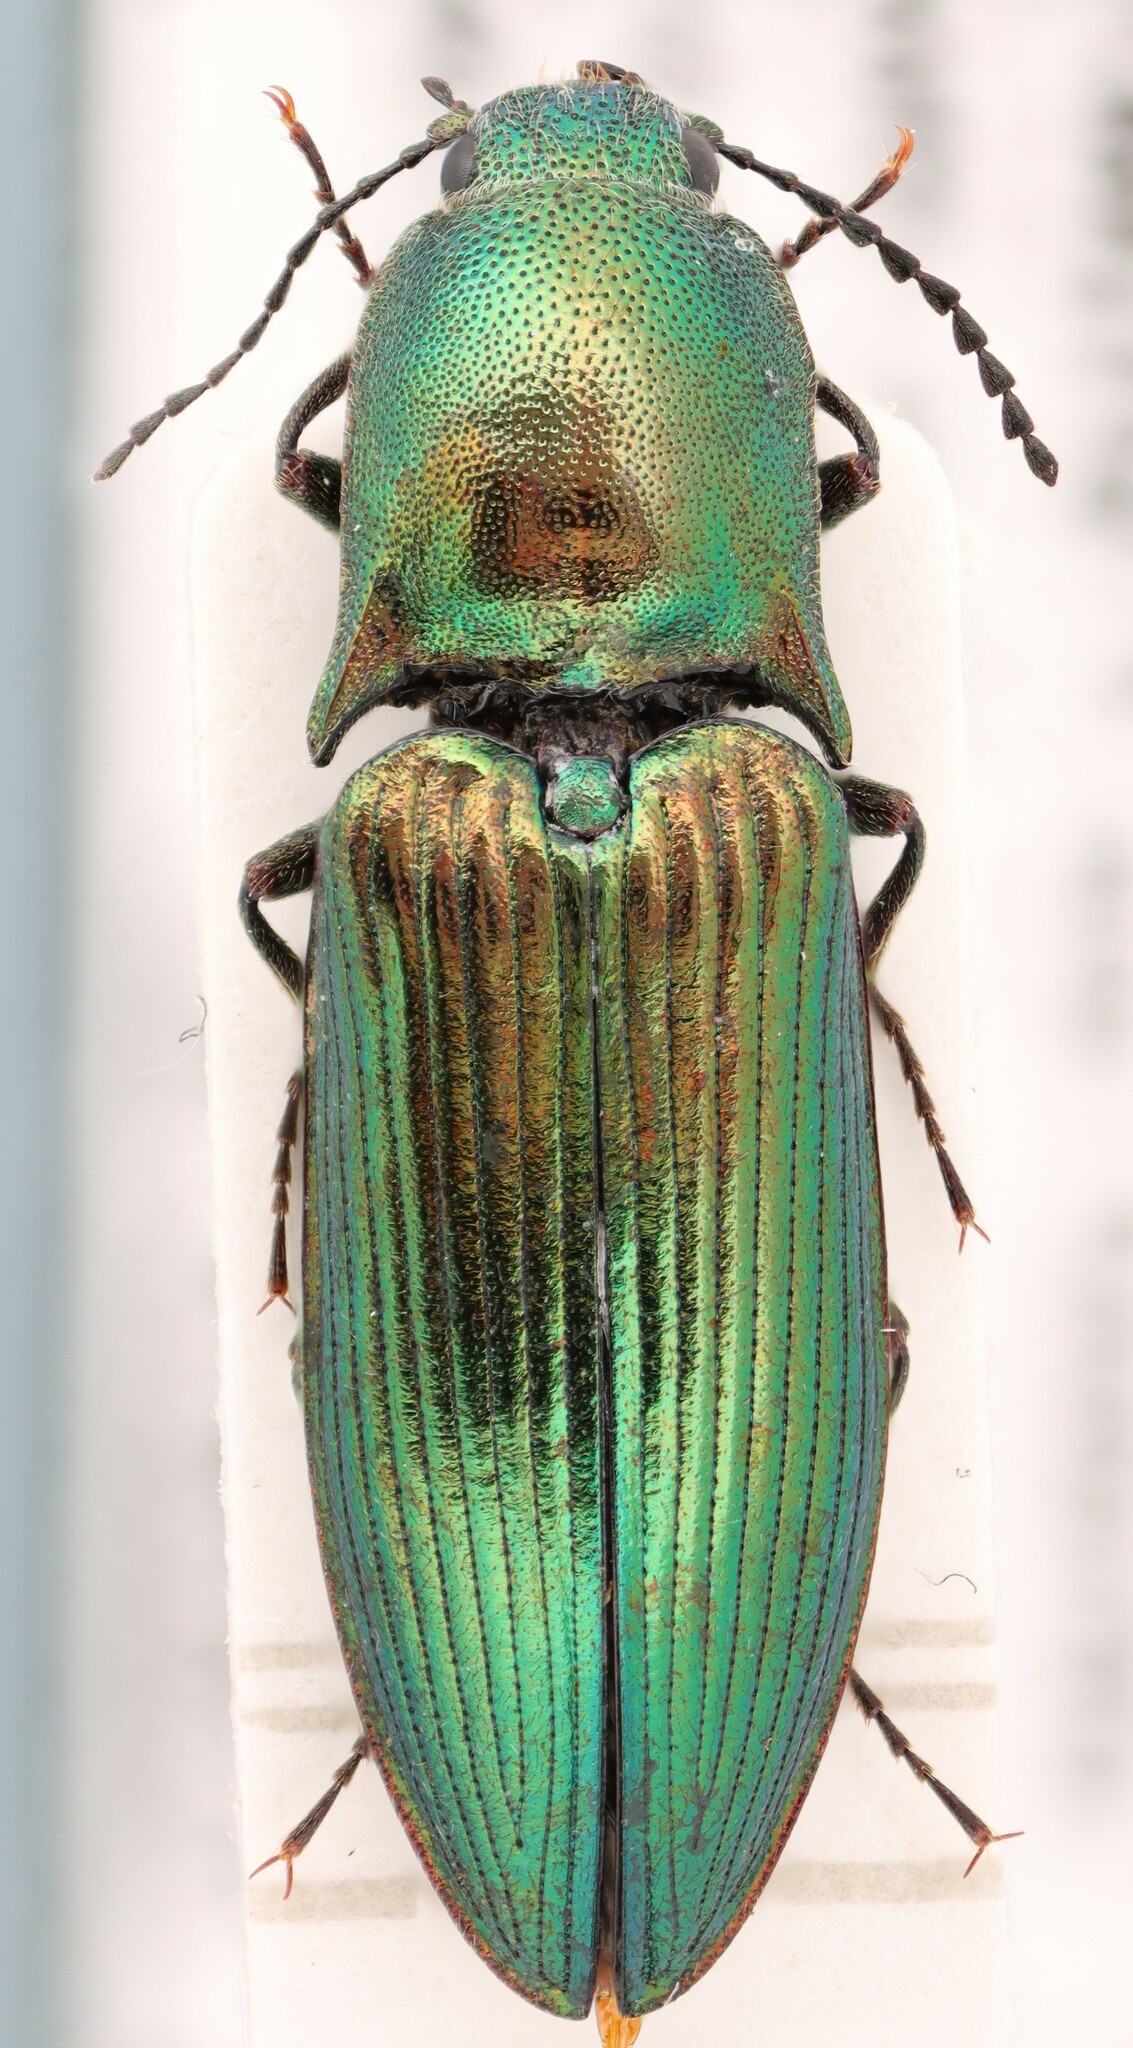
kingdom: Animalia
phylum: Arthropoda
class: Insecta
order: Coleoptera
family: Elateridae
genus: Nitidolimonius
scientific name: Nitidolimonius resplendens
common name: Resplendent click beetle
